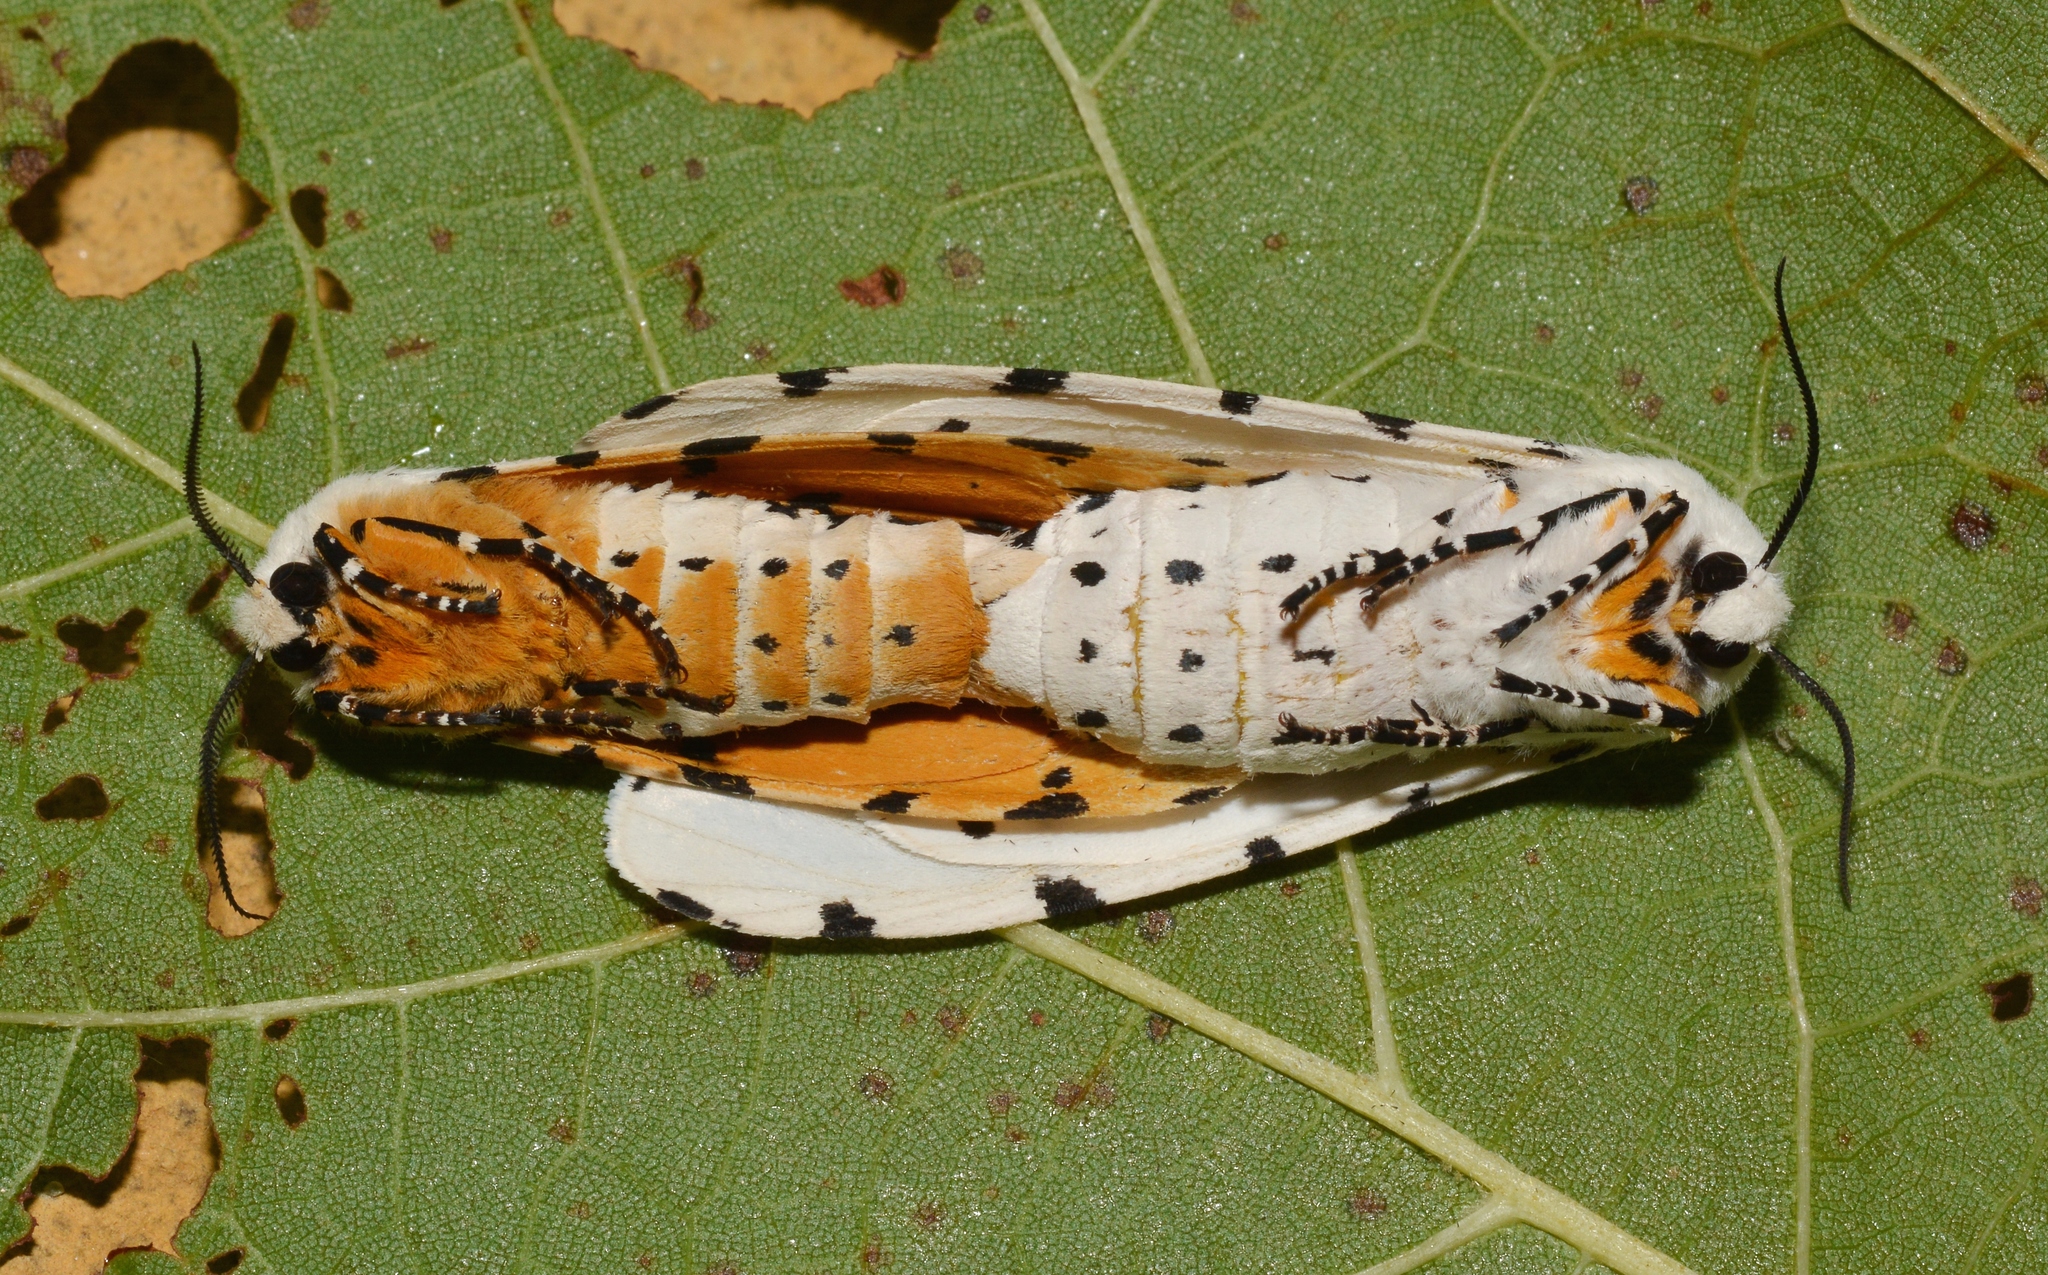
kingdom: Animalia
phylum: Arthropoda
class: Insecta
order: Lepidoptera
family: Erebidae
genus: Estigmene
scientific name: Estigmene acrea
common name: Salt marsh moth
